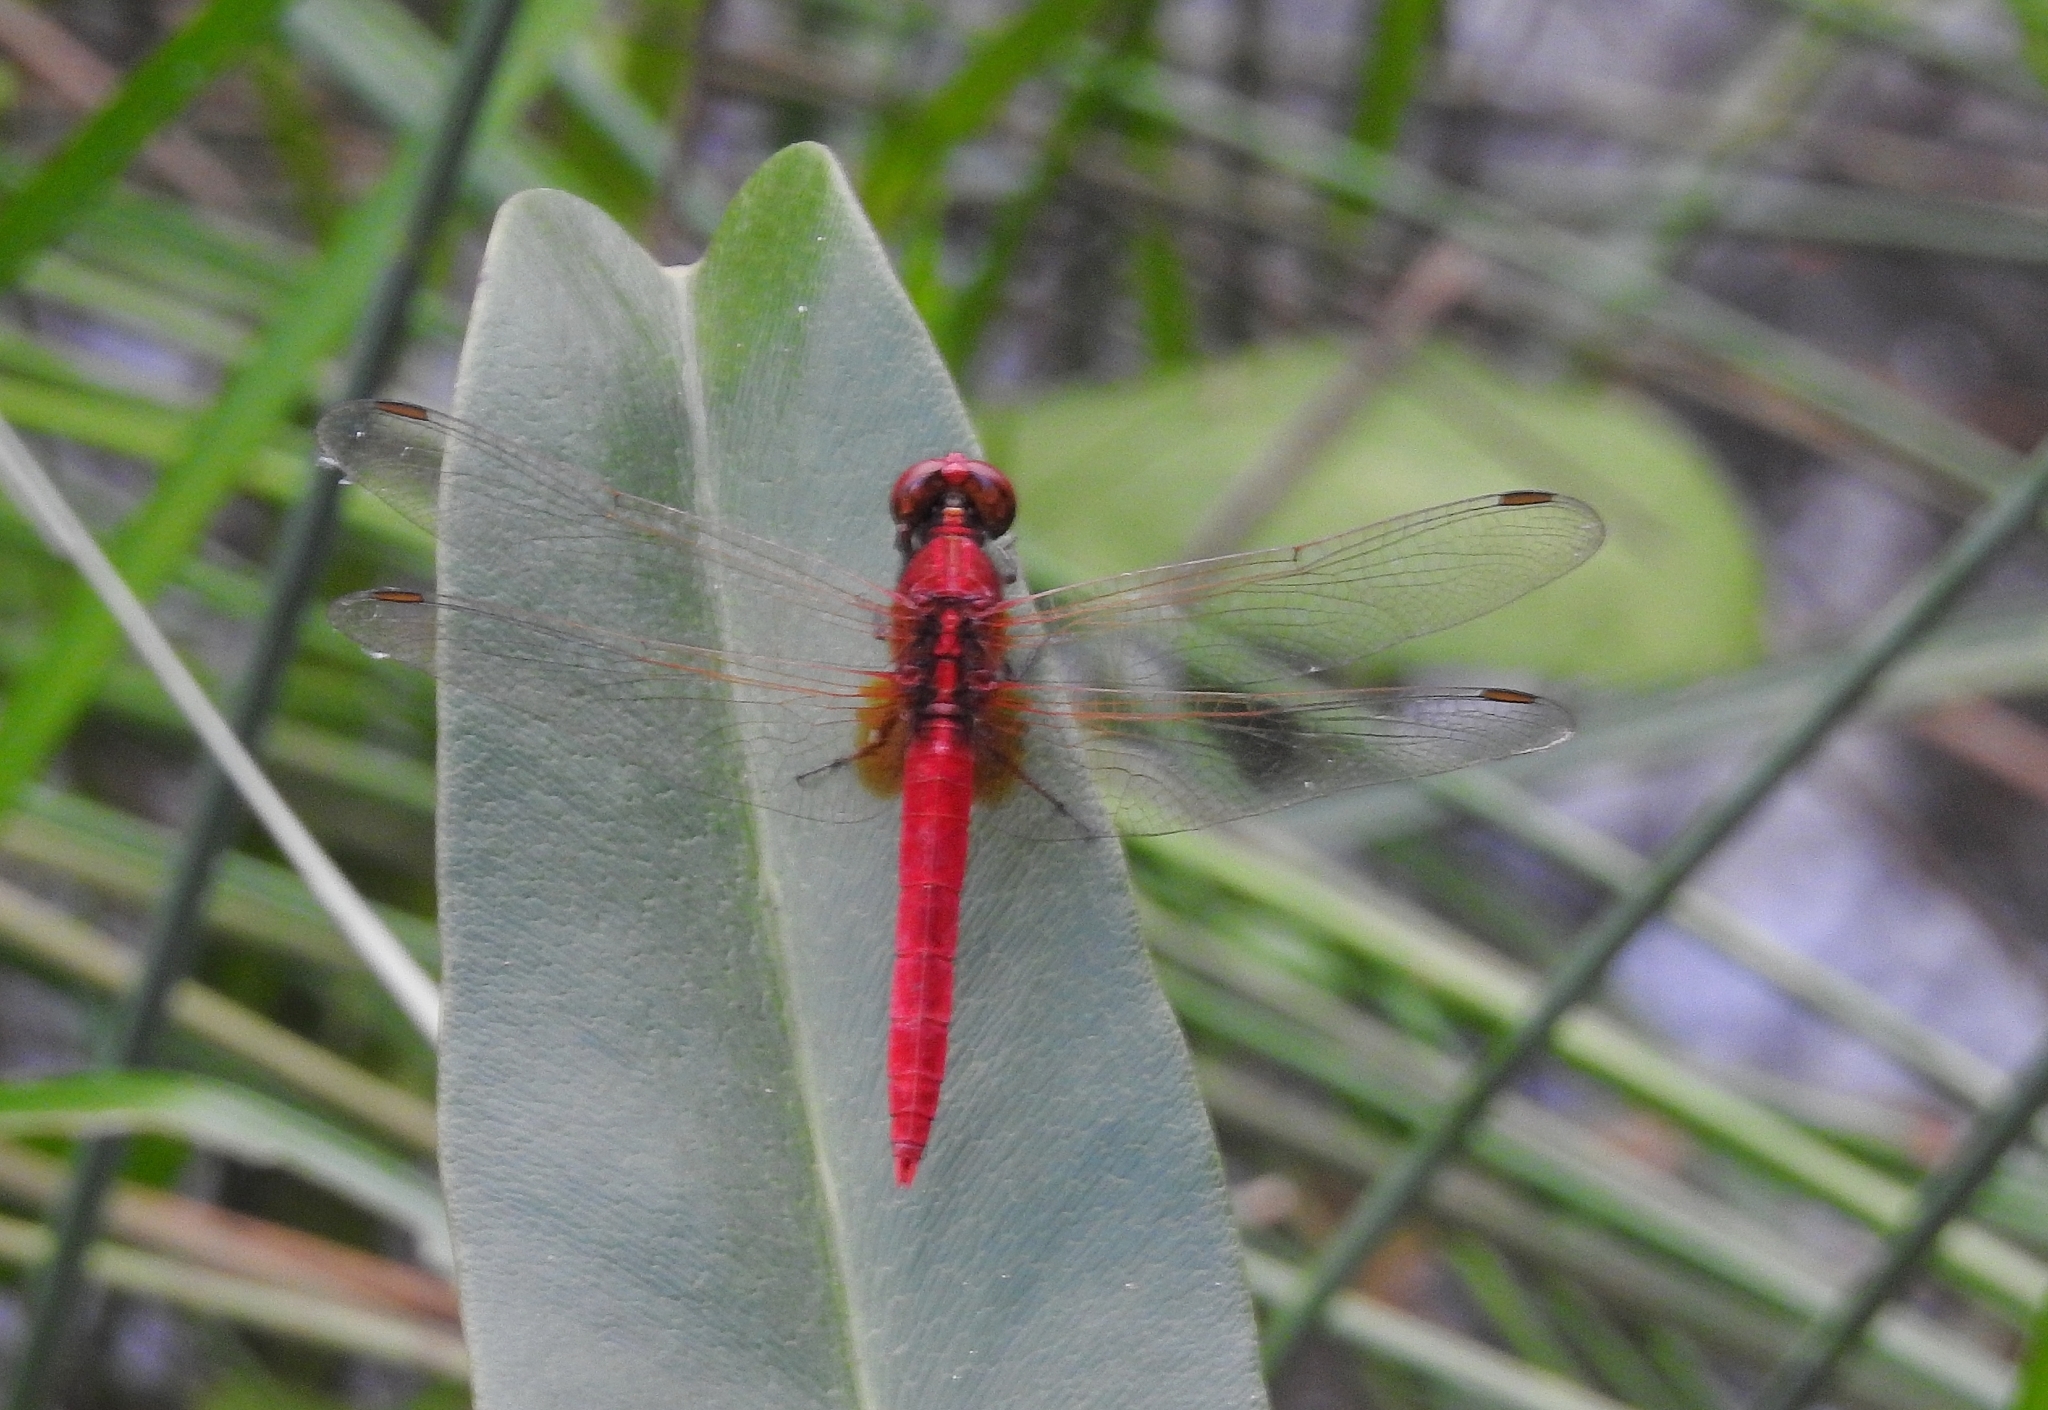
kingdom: Animalia
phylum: Arthropoda
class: Insecta
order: Odonata
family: Libellulidae
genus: Rhodothemis
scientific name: Rhodothemis rufa
